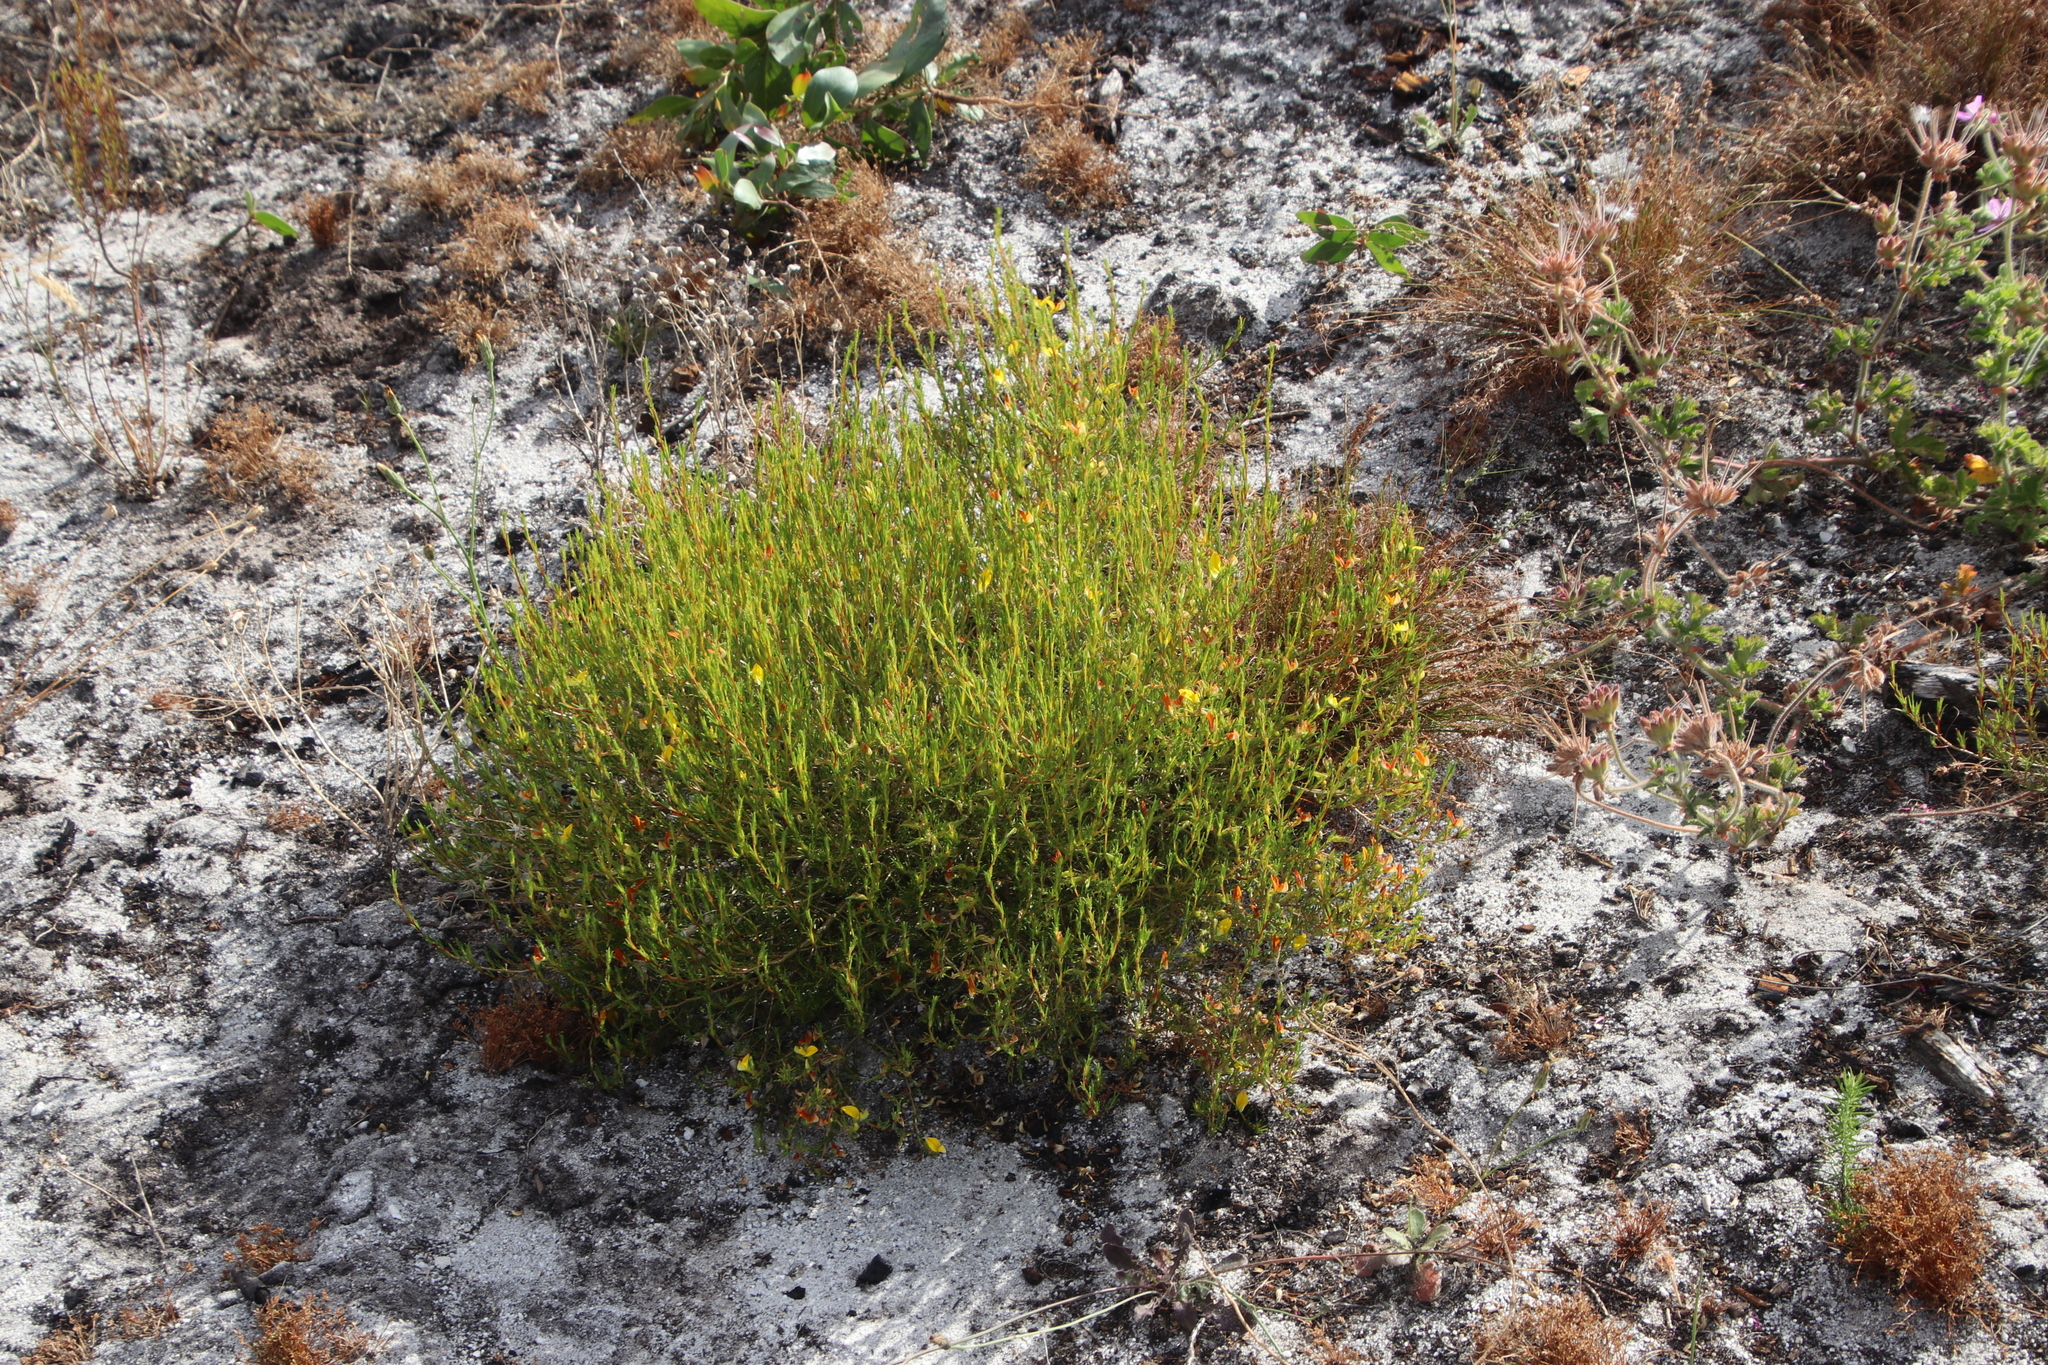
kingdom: Plantae
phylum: Tracheophyta
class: Magnoliopsida
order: Fabales
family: Fabaceae
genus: Aspalathus
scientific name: Aspalathus abietina
